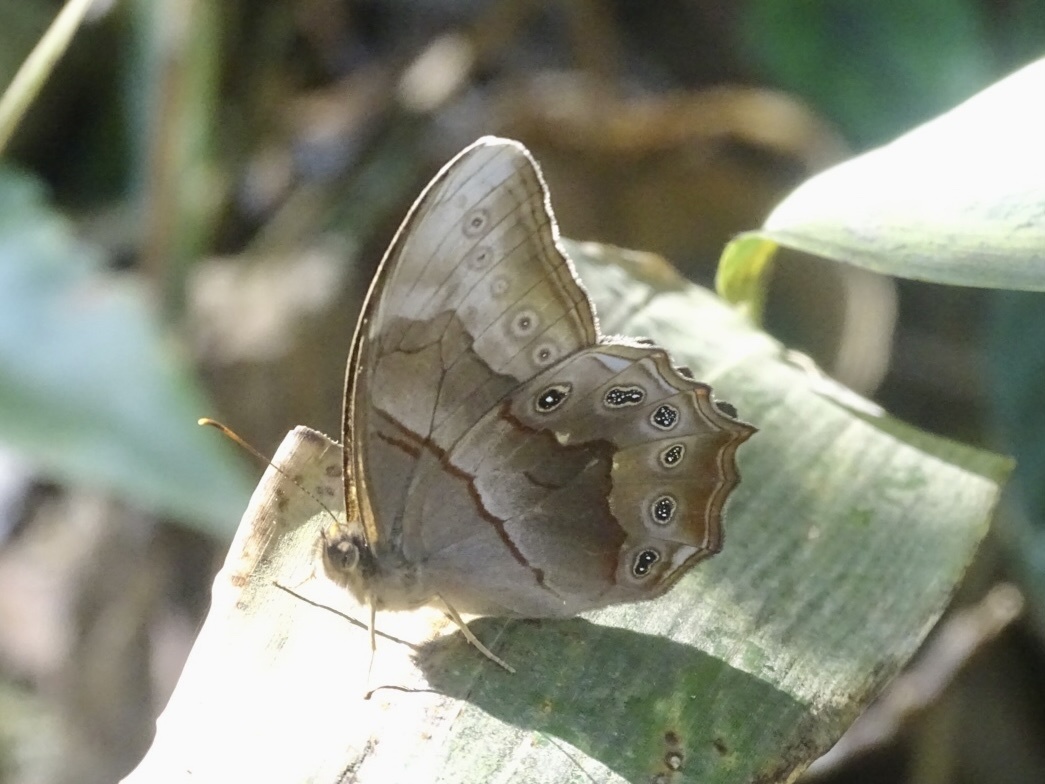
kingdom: Animalia
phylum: Arthropoda
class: Insecta
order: Lepidoptera
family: Nymphalidae
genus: Lethe
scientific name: Lethe chandica
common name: Angled red forester
